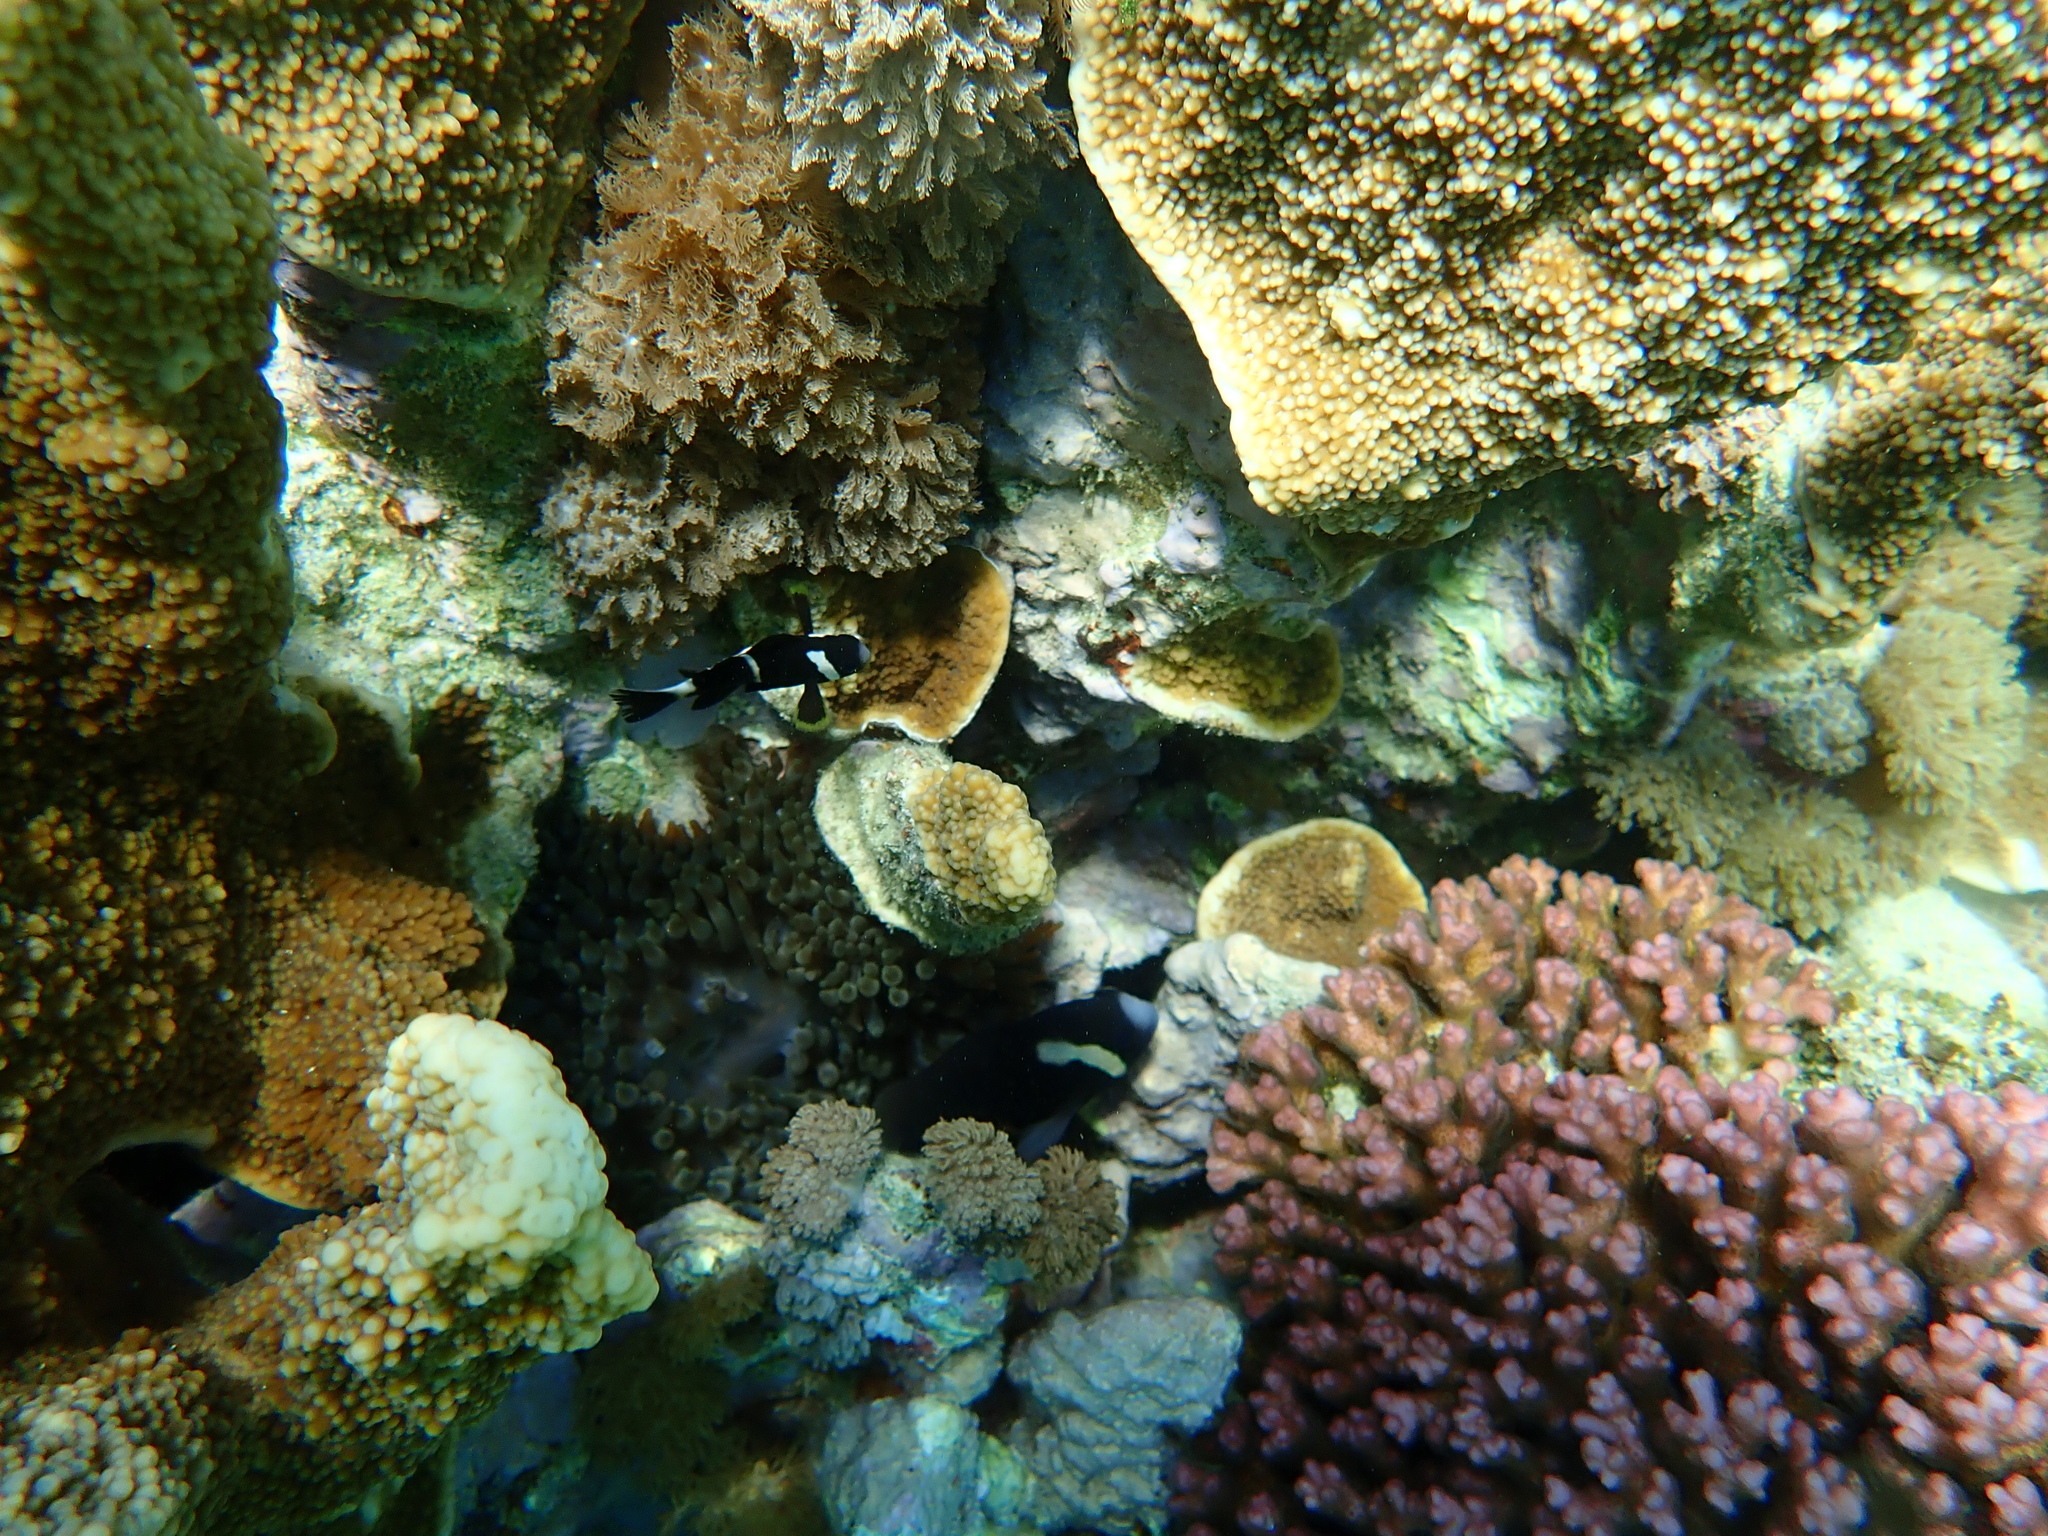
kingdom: Animalia
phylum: Chordata
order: Perciformes
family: Pomacentridae
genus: Amphiprion
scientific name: Amphiprion mccullochi
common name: Mcculloch's anemonefish
